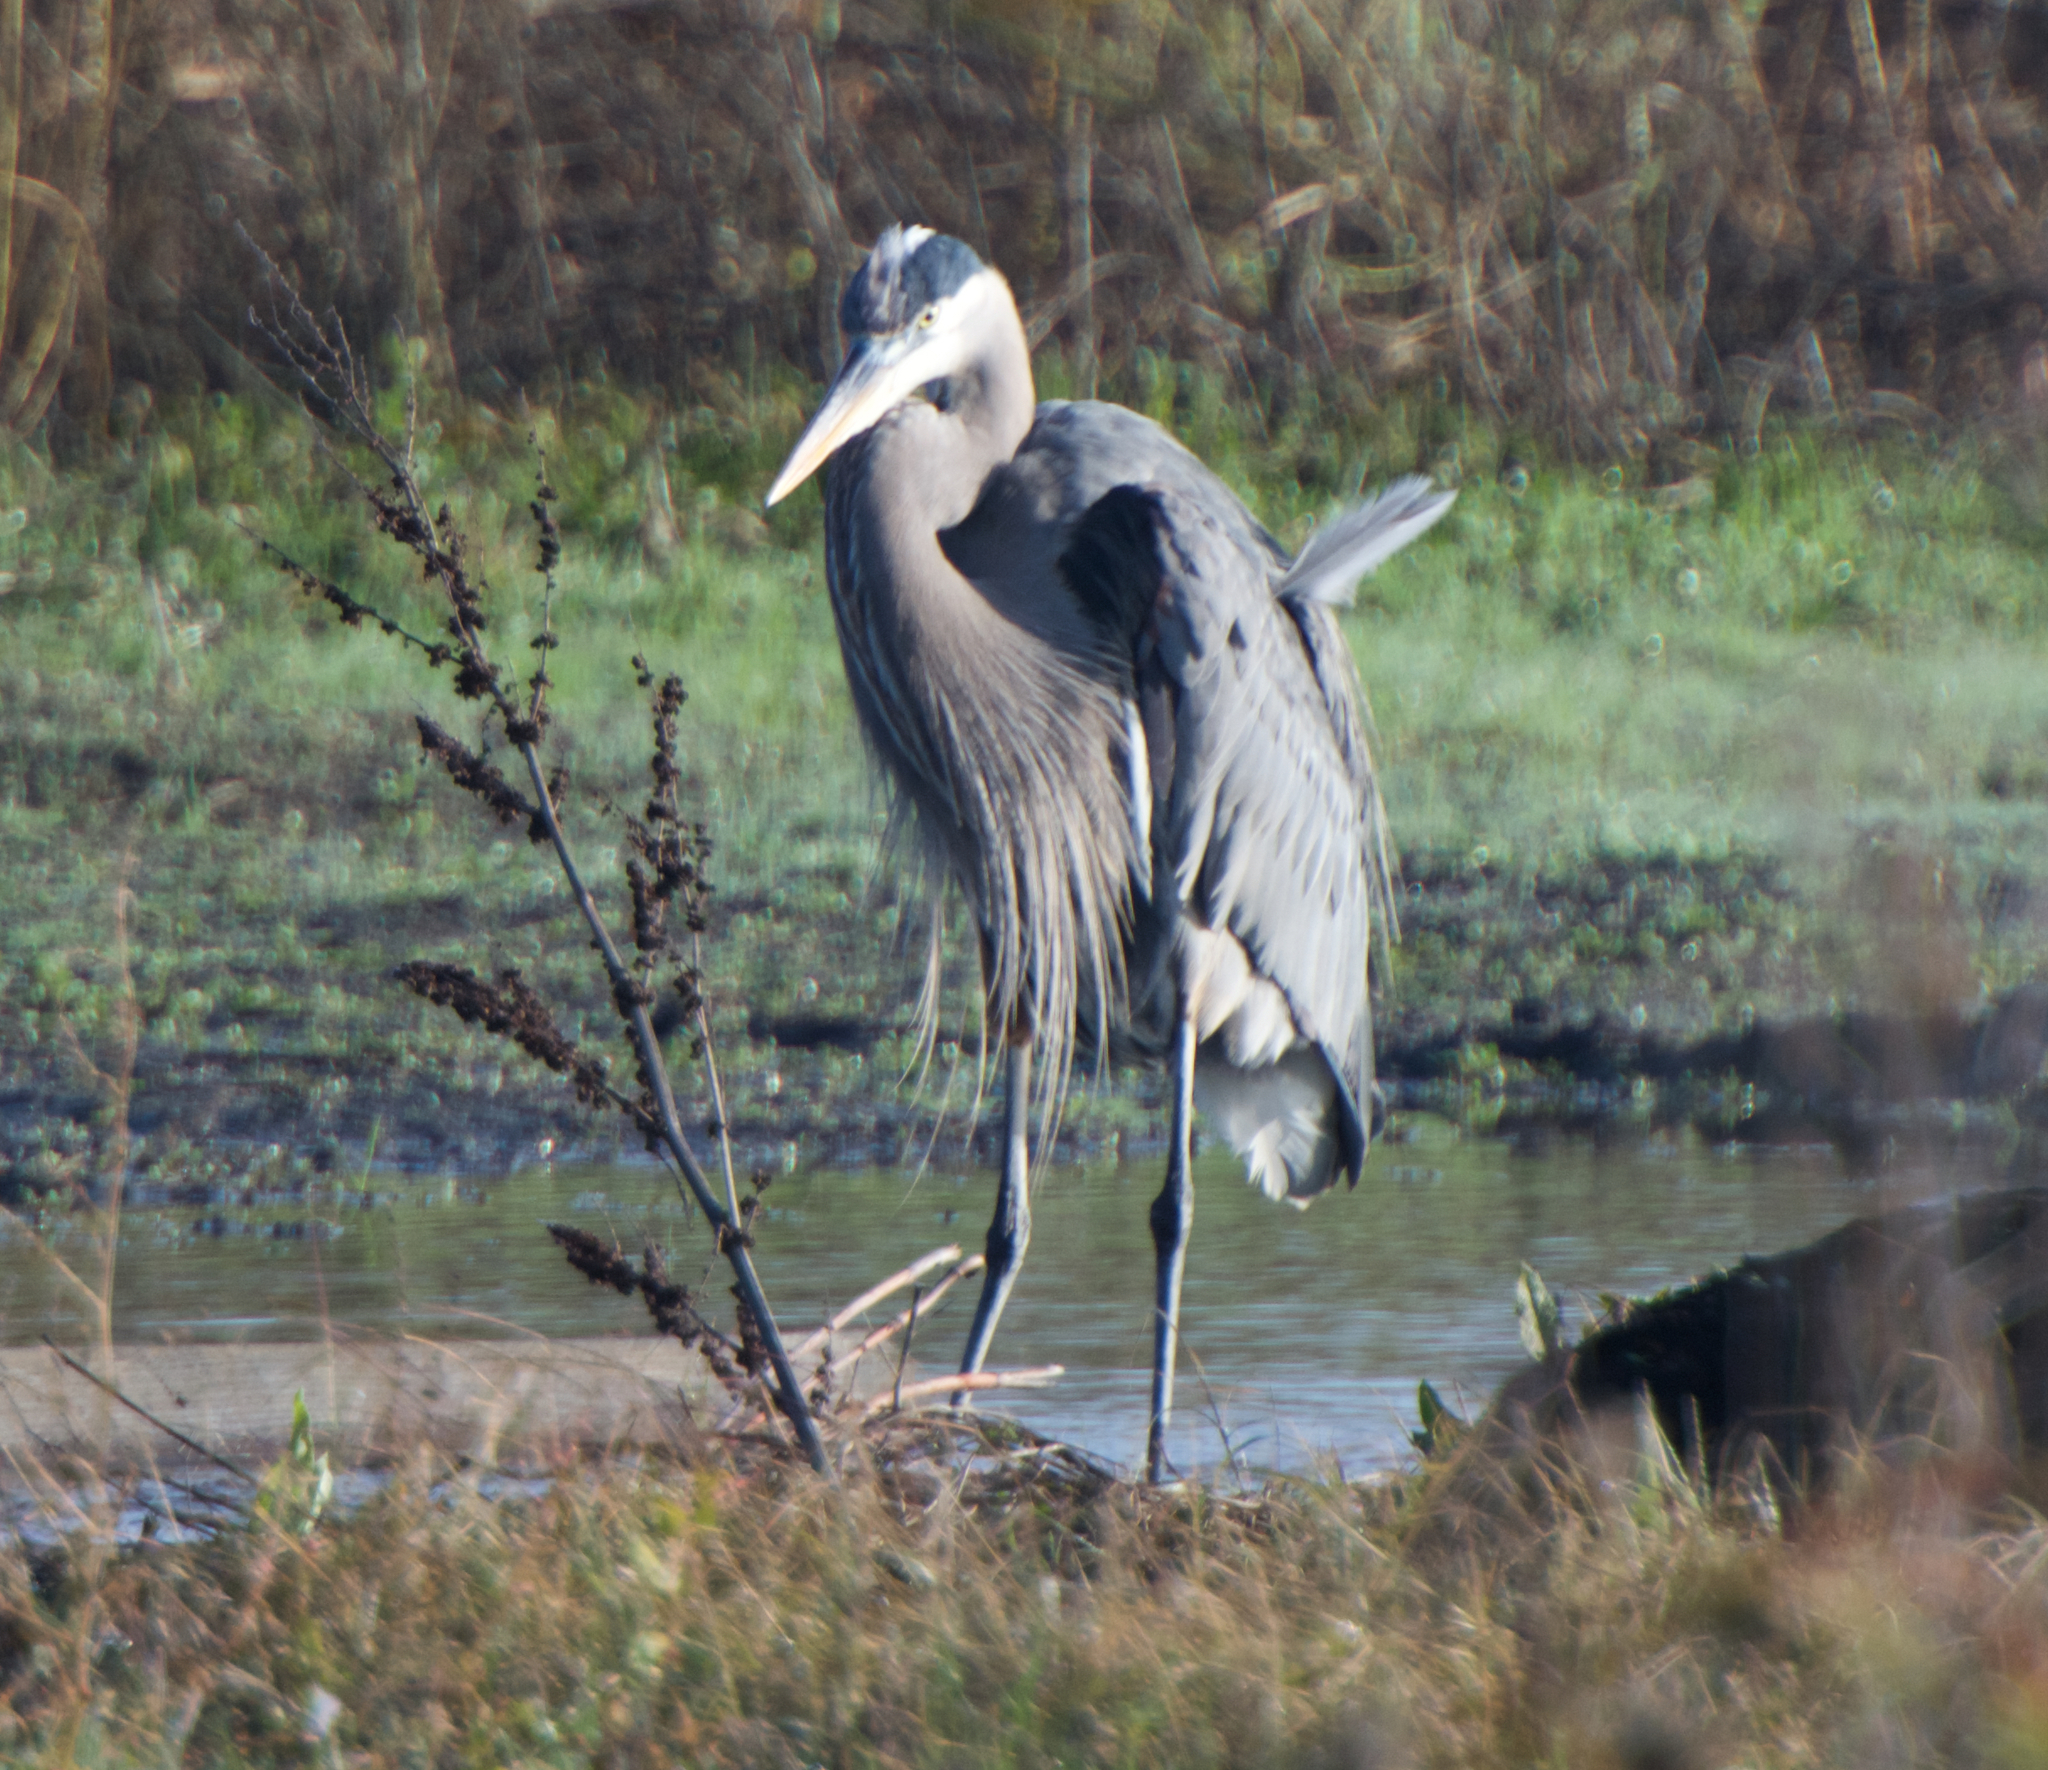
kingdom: Animalia
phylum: Chordata
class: Aves
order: Pelecaniformes
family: Ardeidae
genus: Ardea
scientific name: Ardea herodias
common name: Great blue heron
